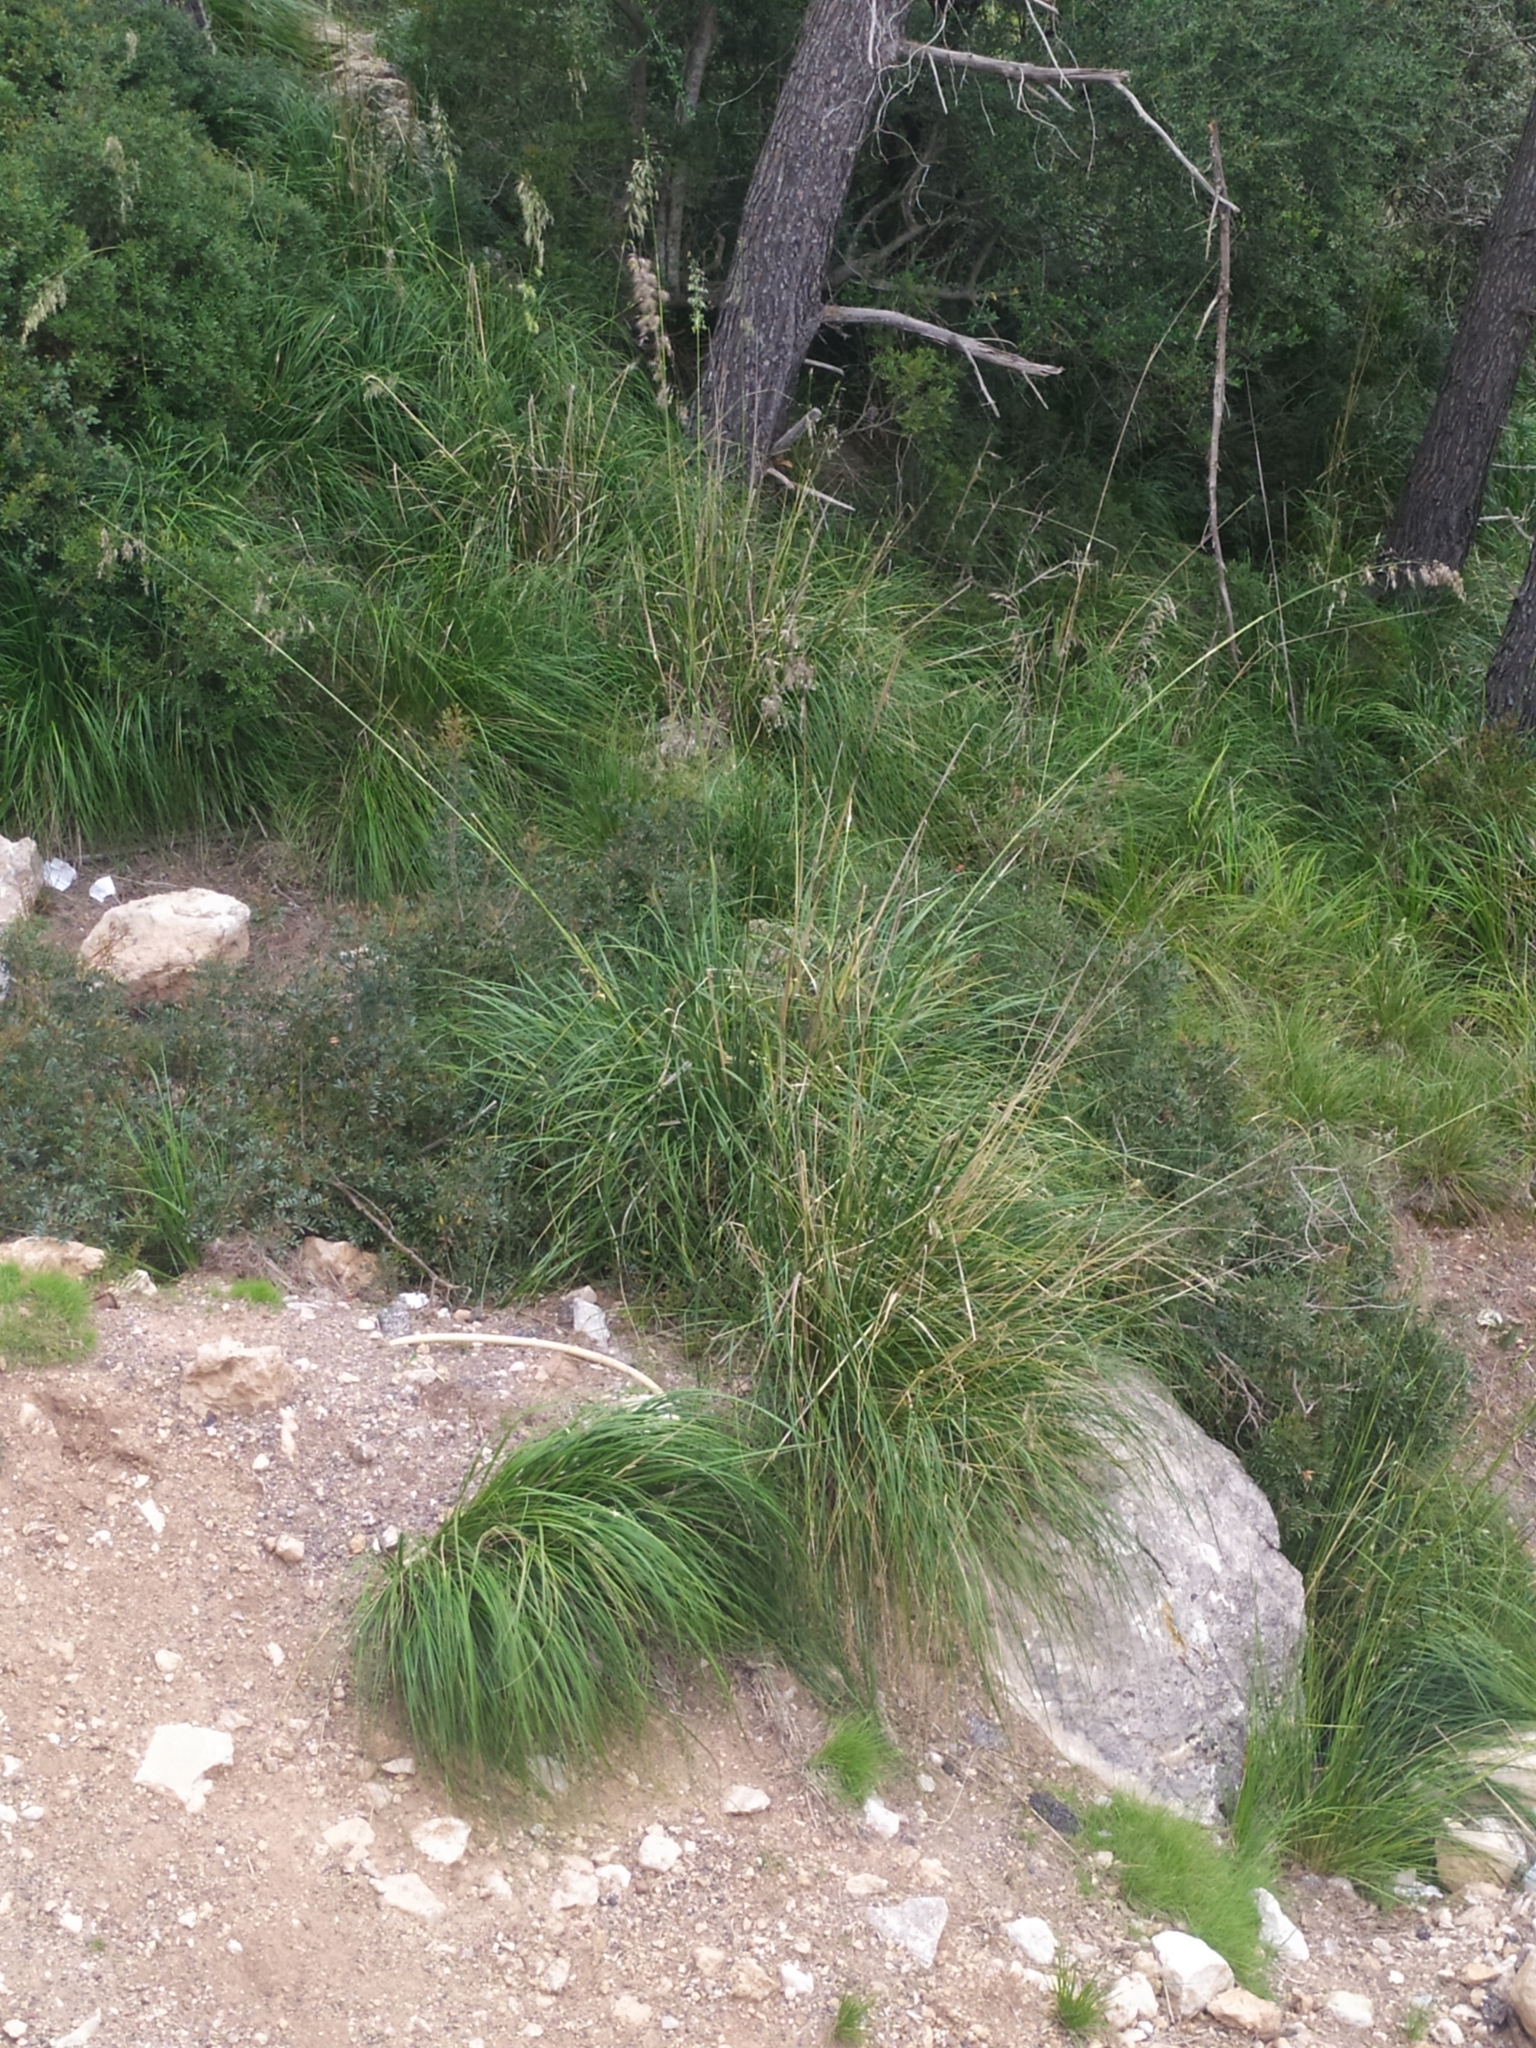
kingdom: Plantae
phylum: Tracheophyta
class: Liliopsida
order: Poales
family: Poaceae
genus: Ampelodesmos
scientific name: Ampelodesmos mauritanicus
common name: Mauritanian grass
